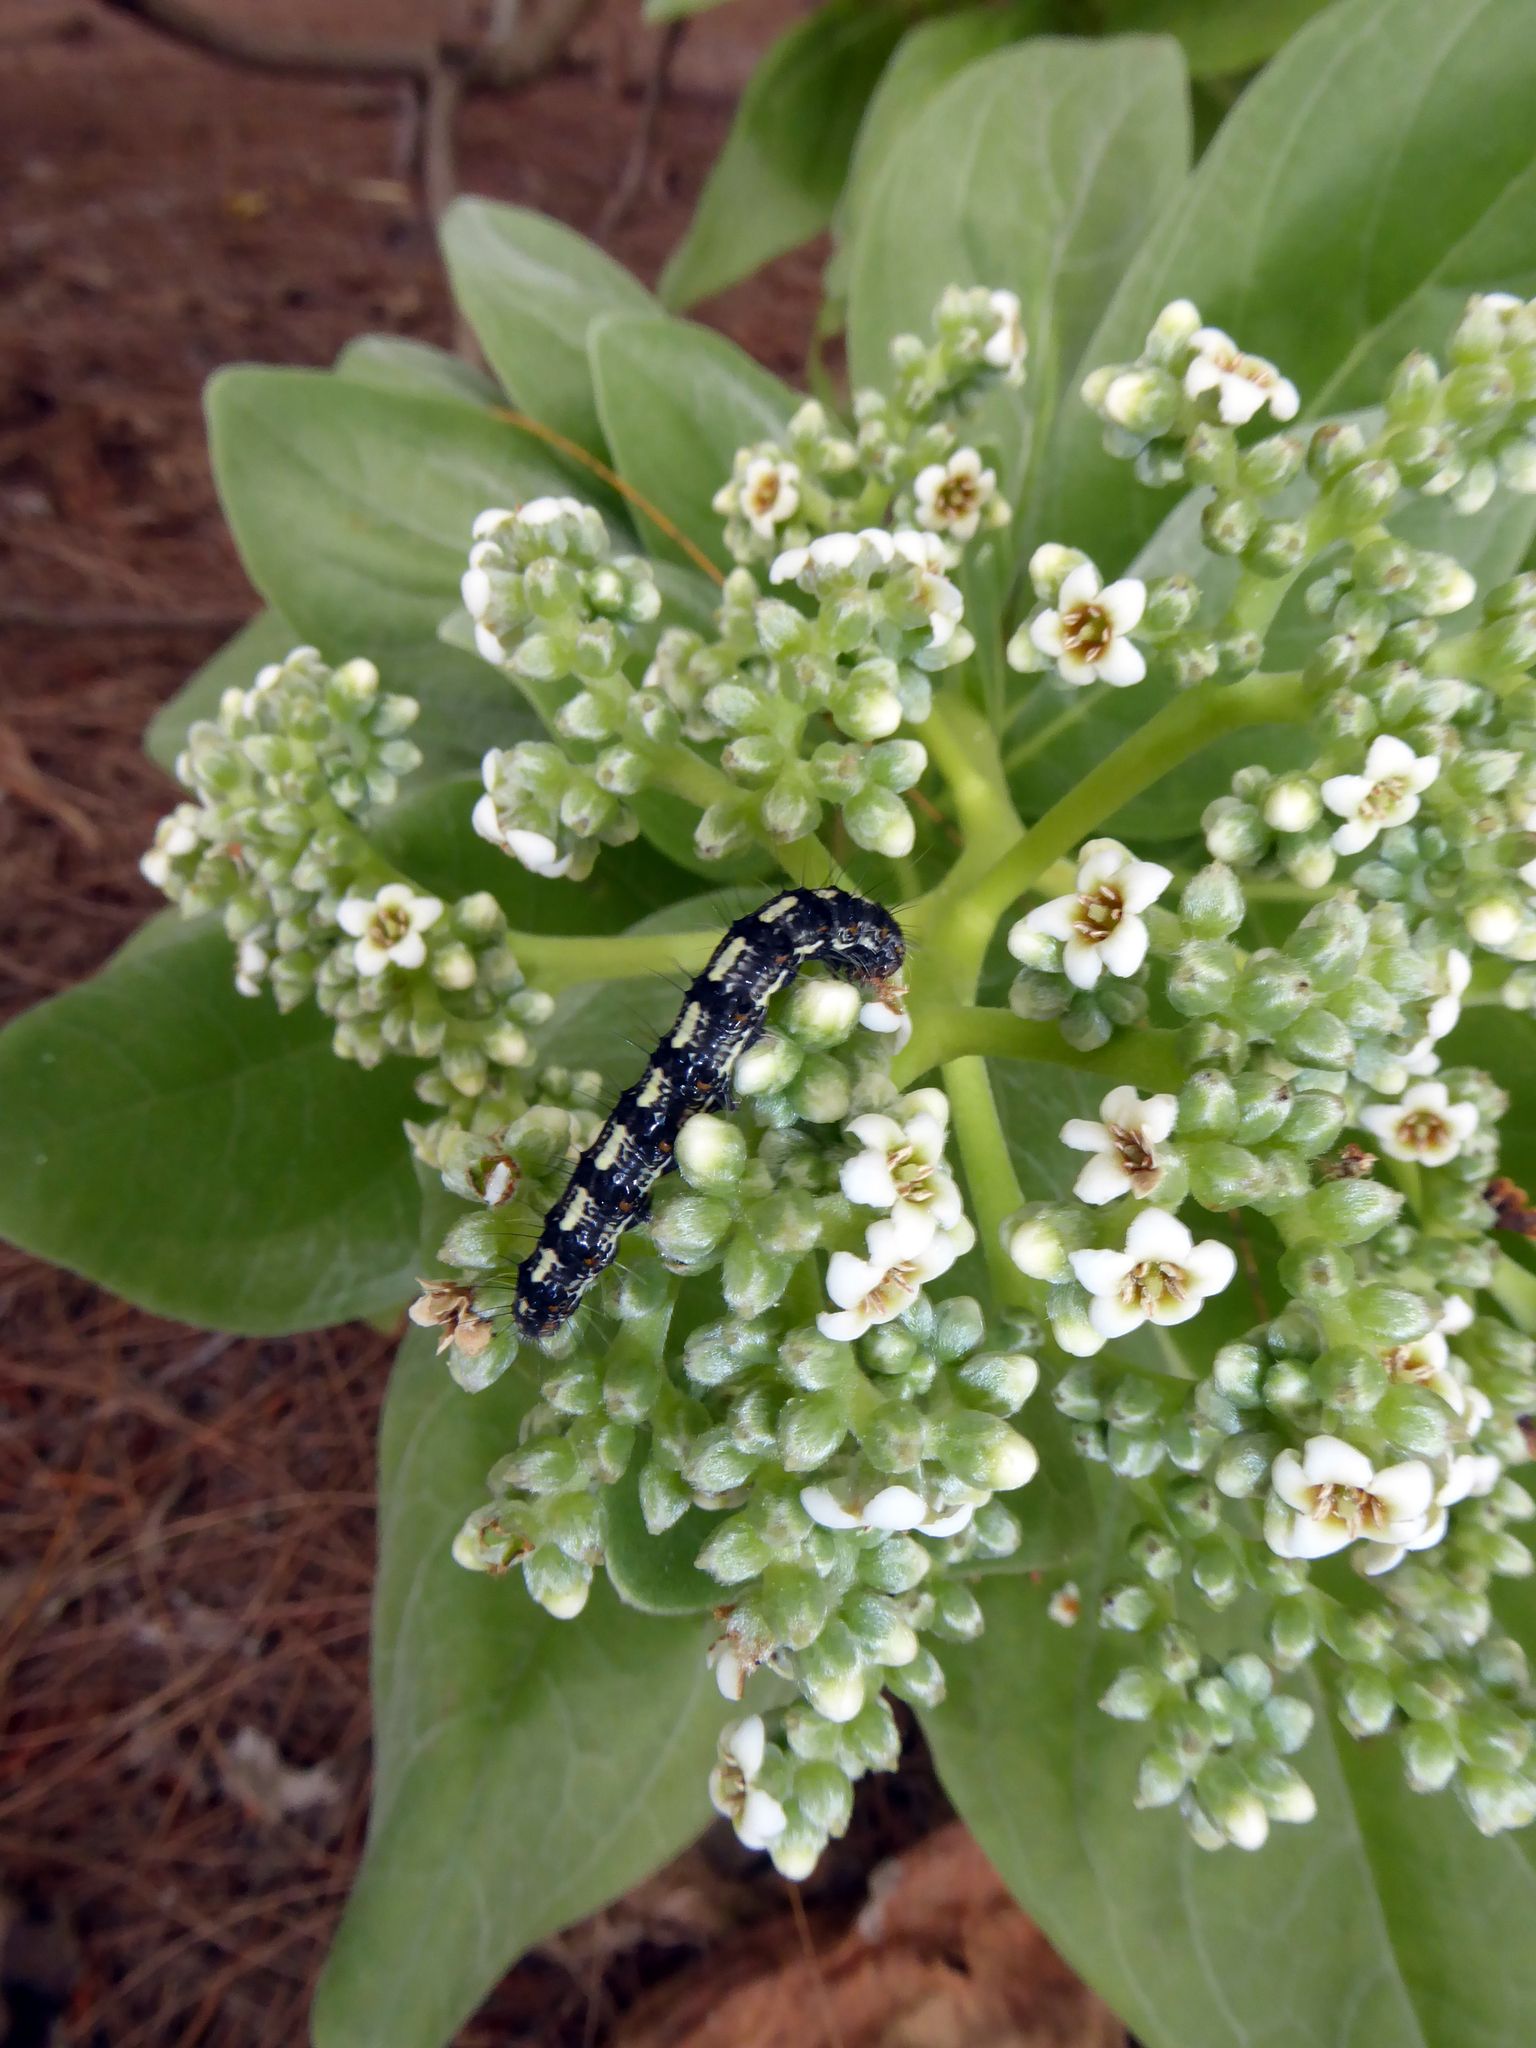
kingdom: Animalia
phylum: Arthropoda
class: Insecta
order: Lepidoptera
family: Erebidae
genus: Utetheisa
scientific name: Utetheisa pulchelloides
